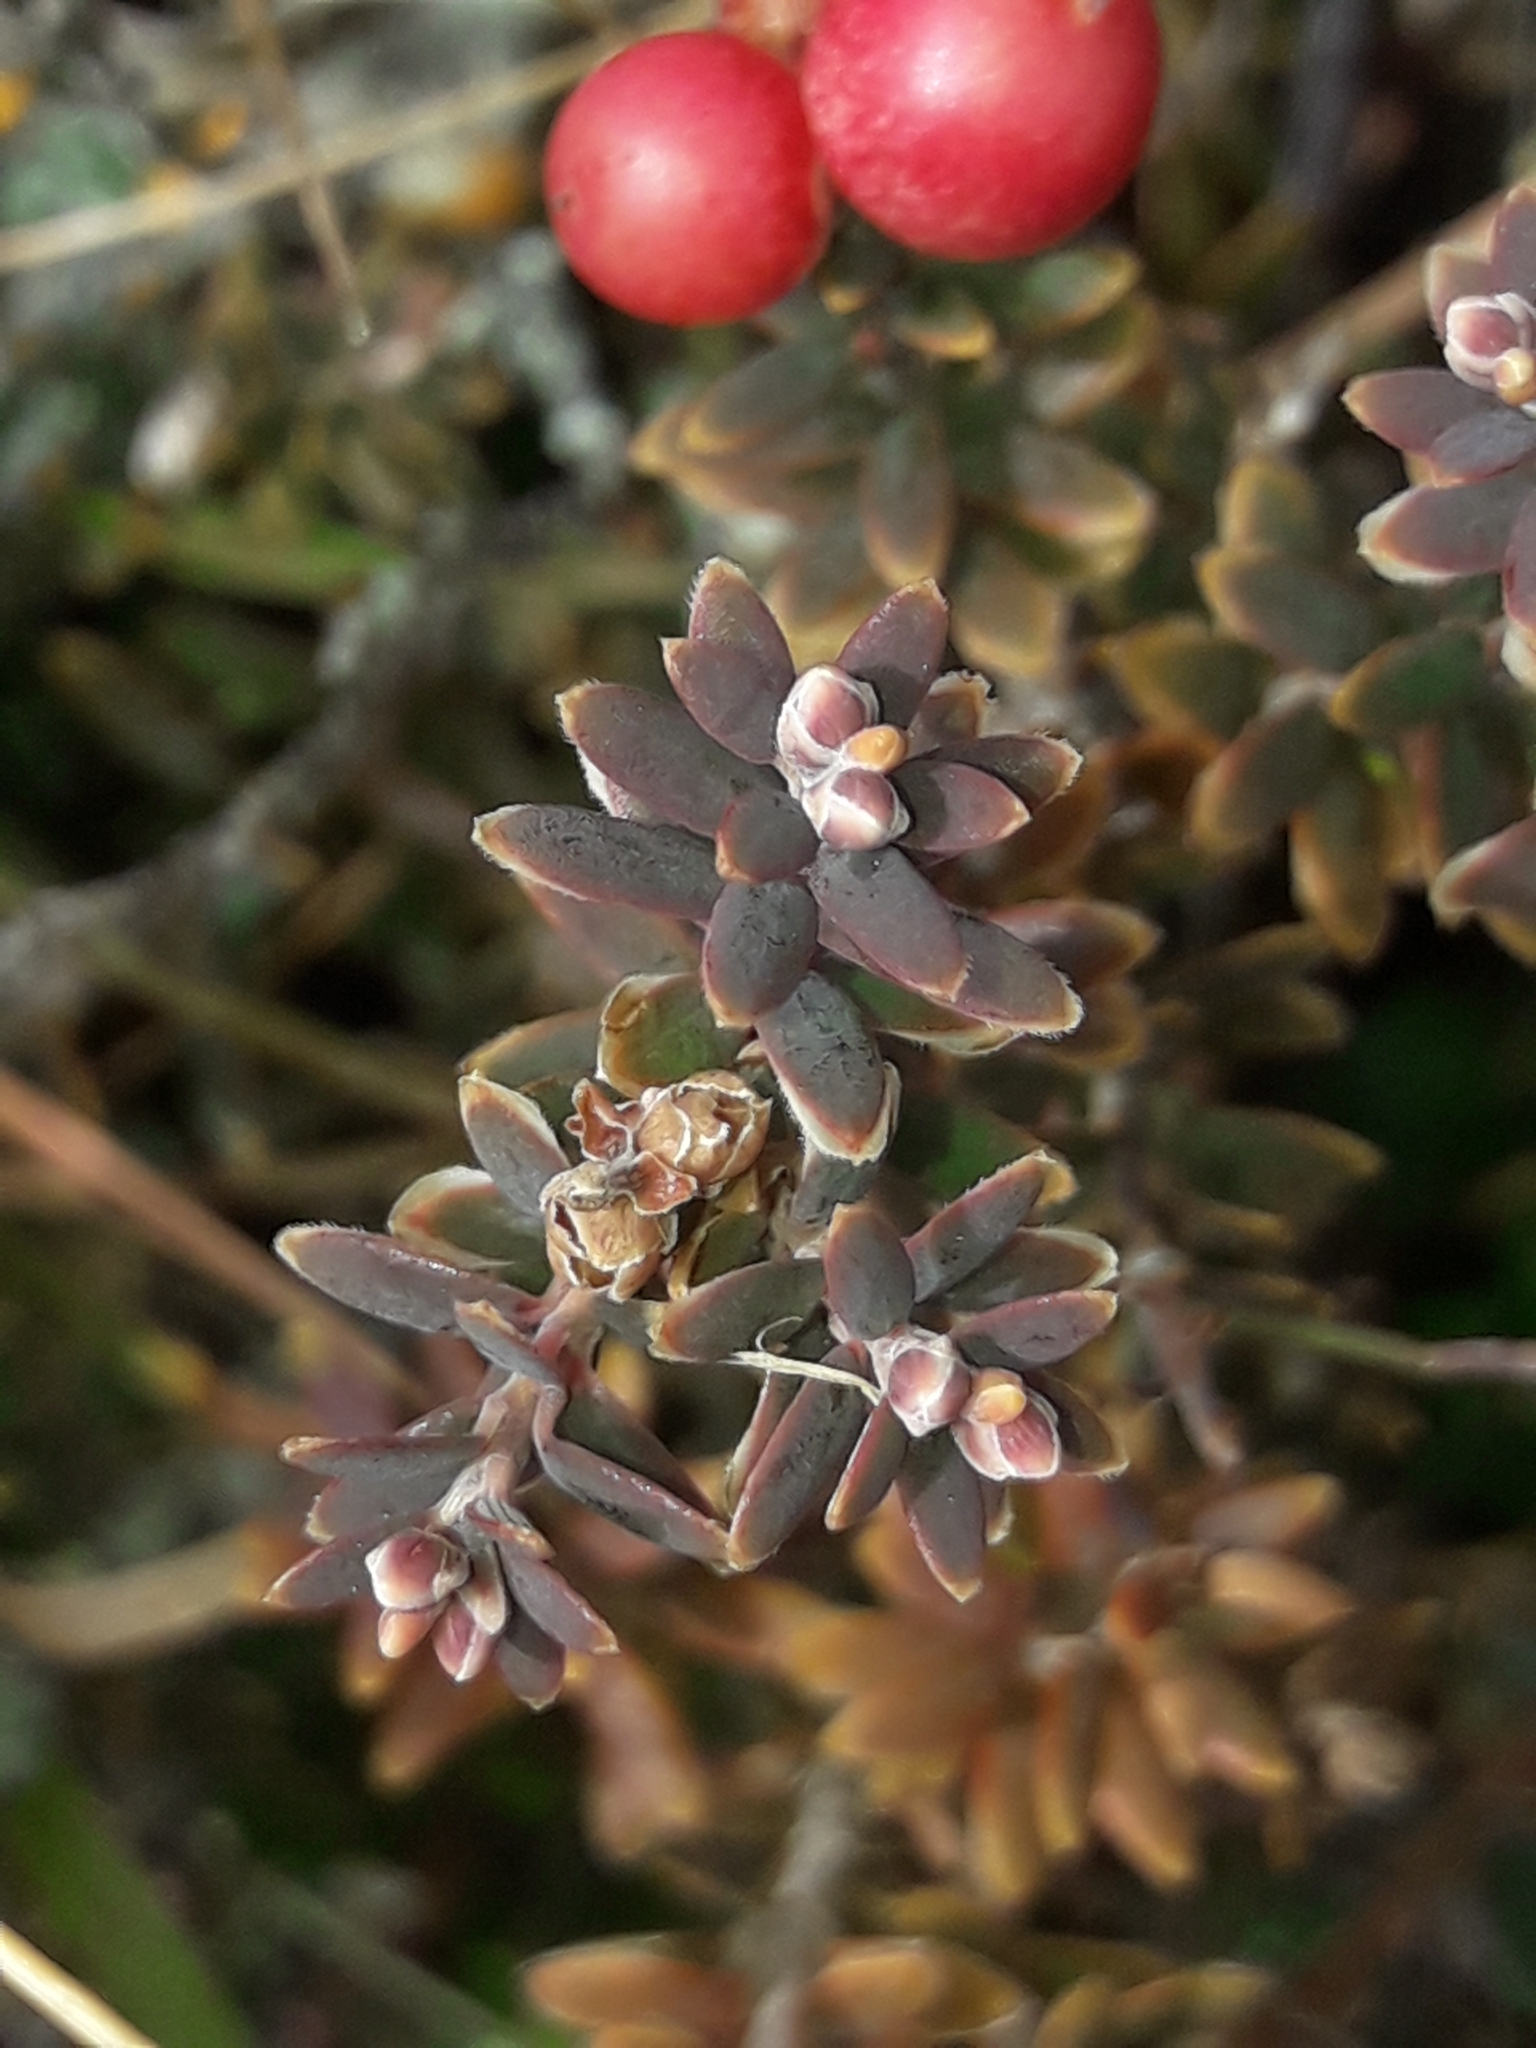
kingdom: Plantae
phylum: Tracheophyta
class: Magnoliopsida
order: Ericales
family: Ericaceae
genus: Acrothamnus
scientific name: Acrothamnus colensoi
